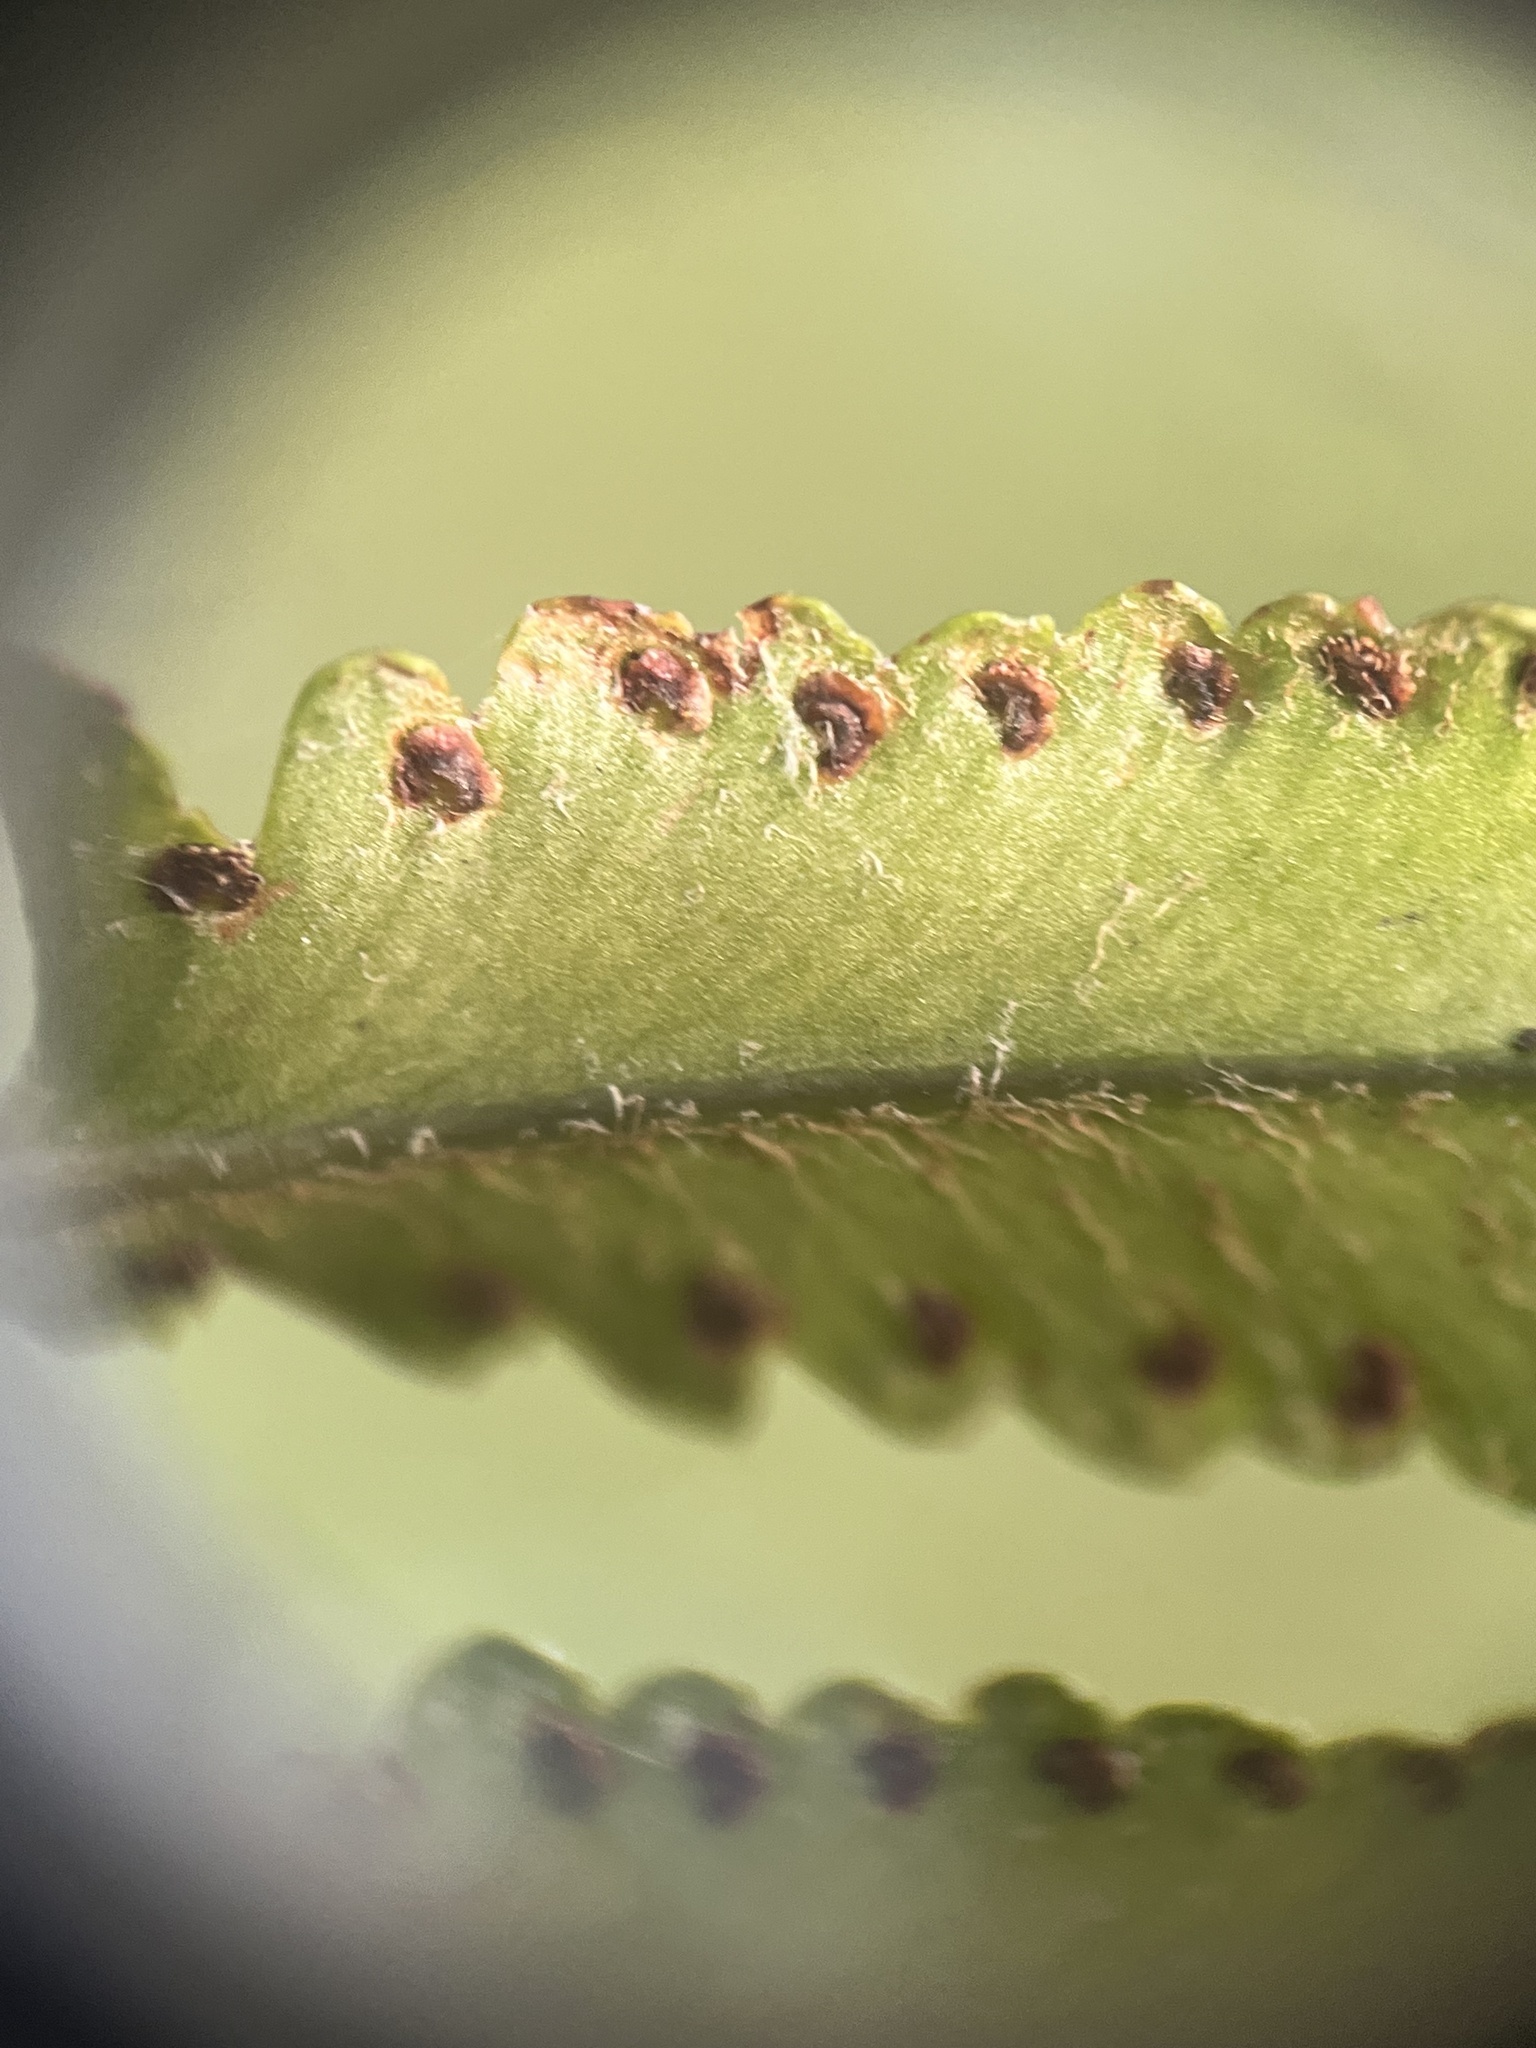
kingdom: Plantae
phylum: Tracheophyta
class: Polypodiopsida
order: Polypodiales
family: Nephrolepidaceae
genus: Nephrolepis
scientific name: Nephrolepis brownii
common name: Asian swordfern
